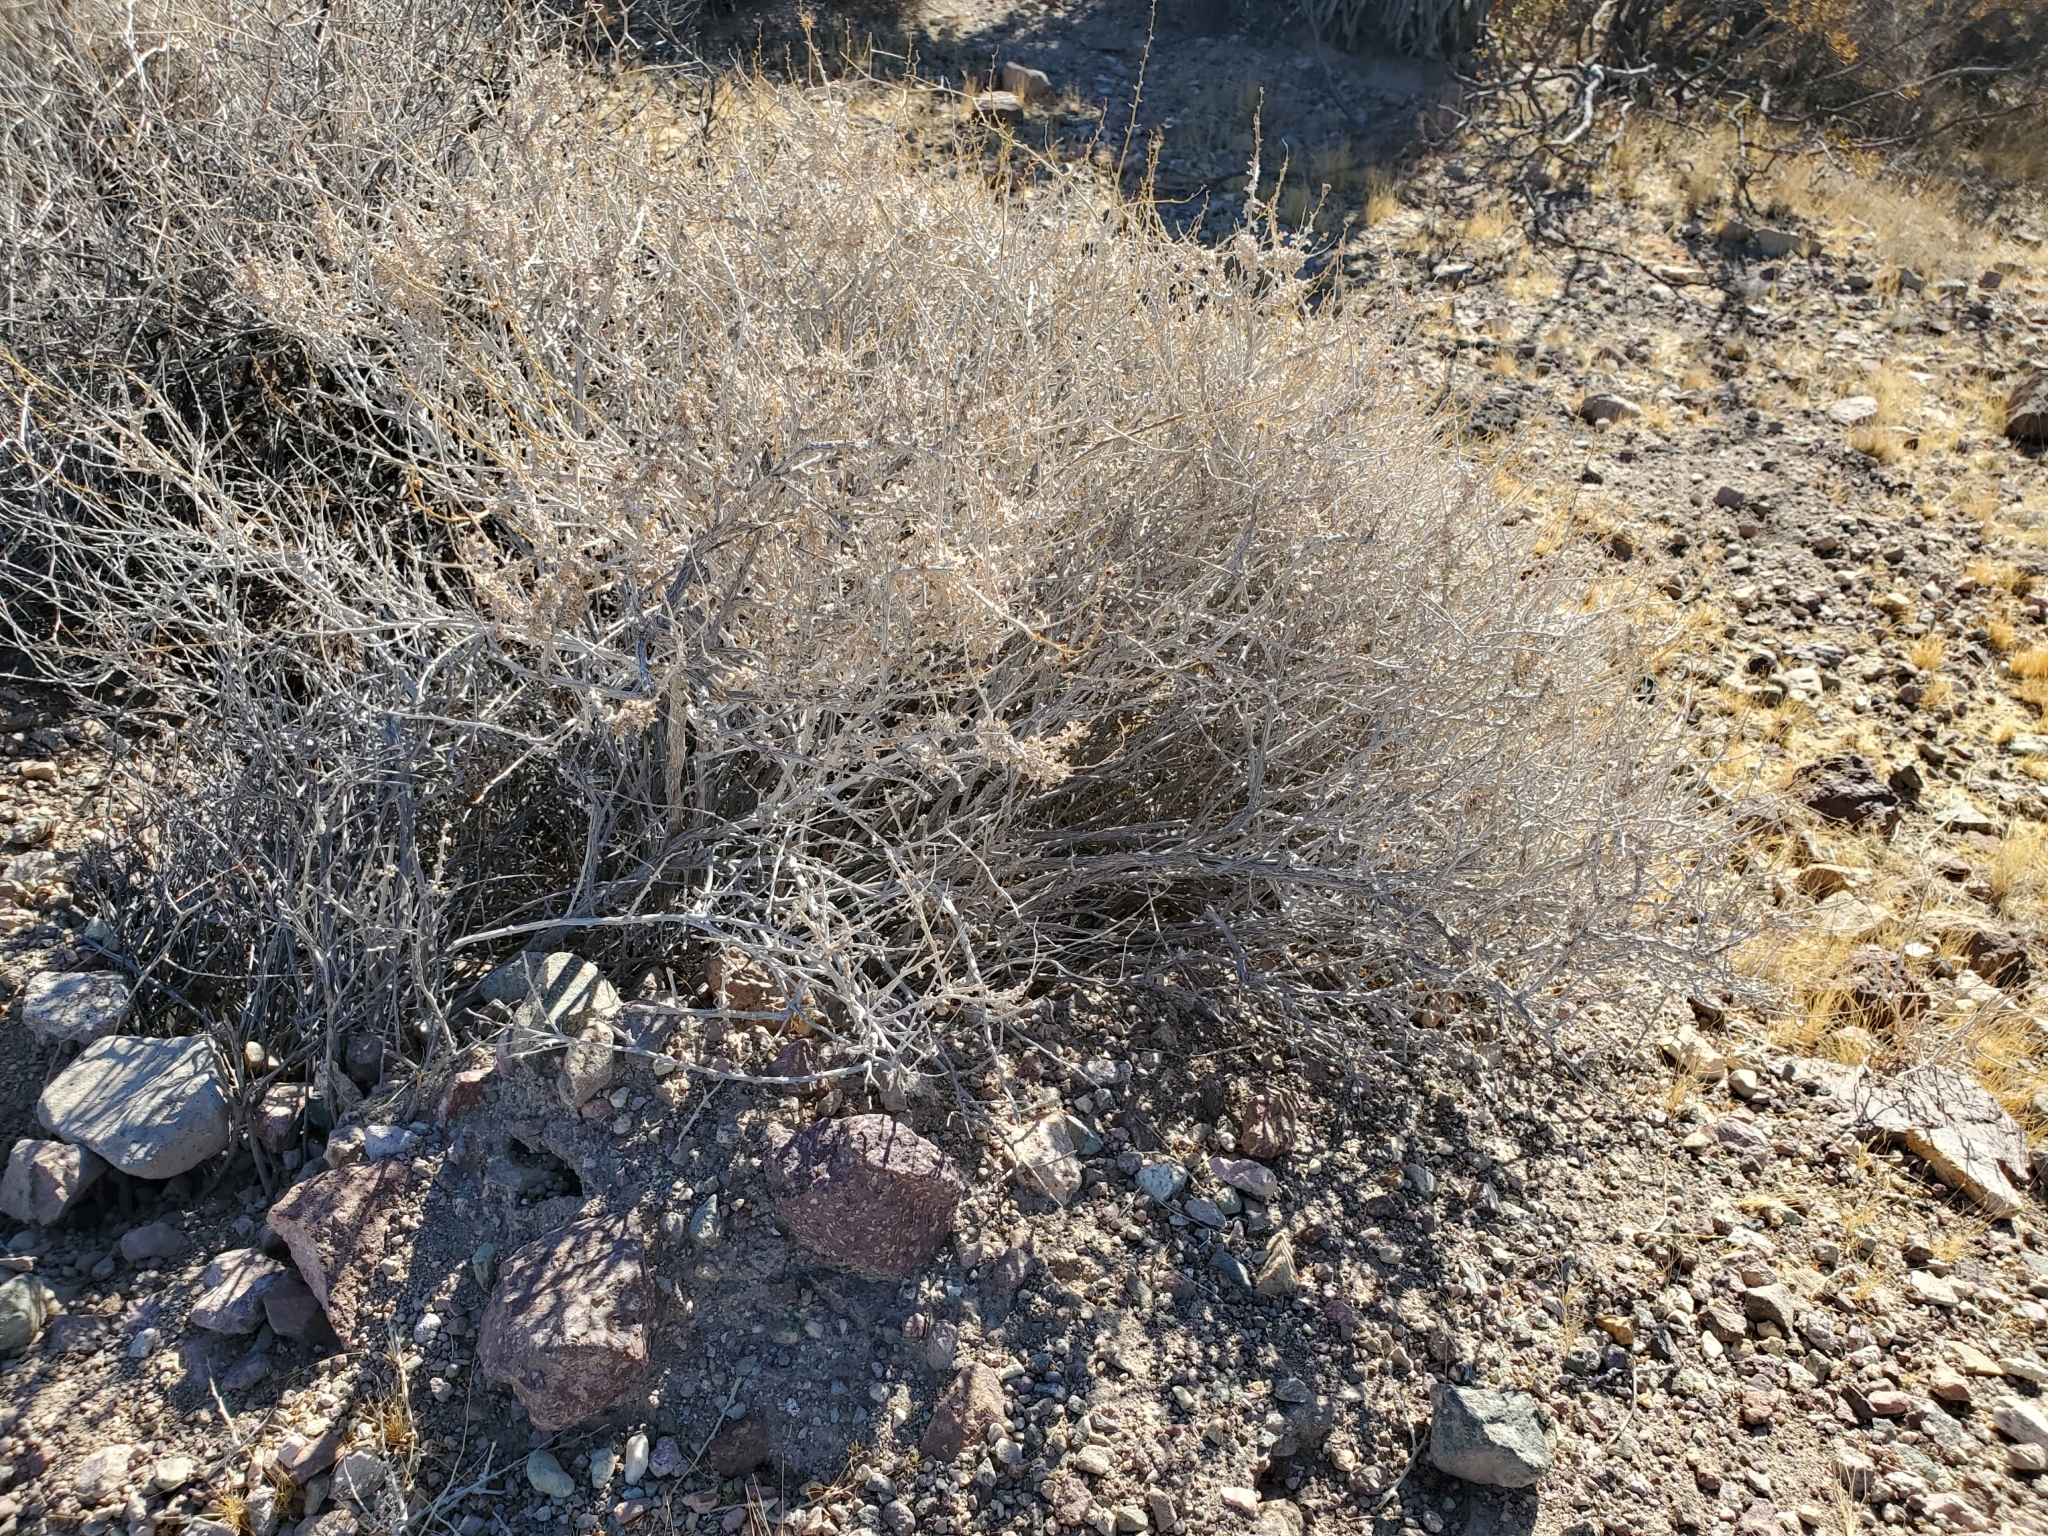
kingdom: Plantae
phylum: Tracheophyta
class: Magnoliopsida
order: Asterales
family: Asteraceae
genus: Ambrosia
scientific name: Ambrosia dumosa
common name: Bur-sage
